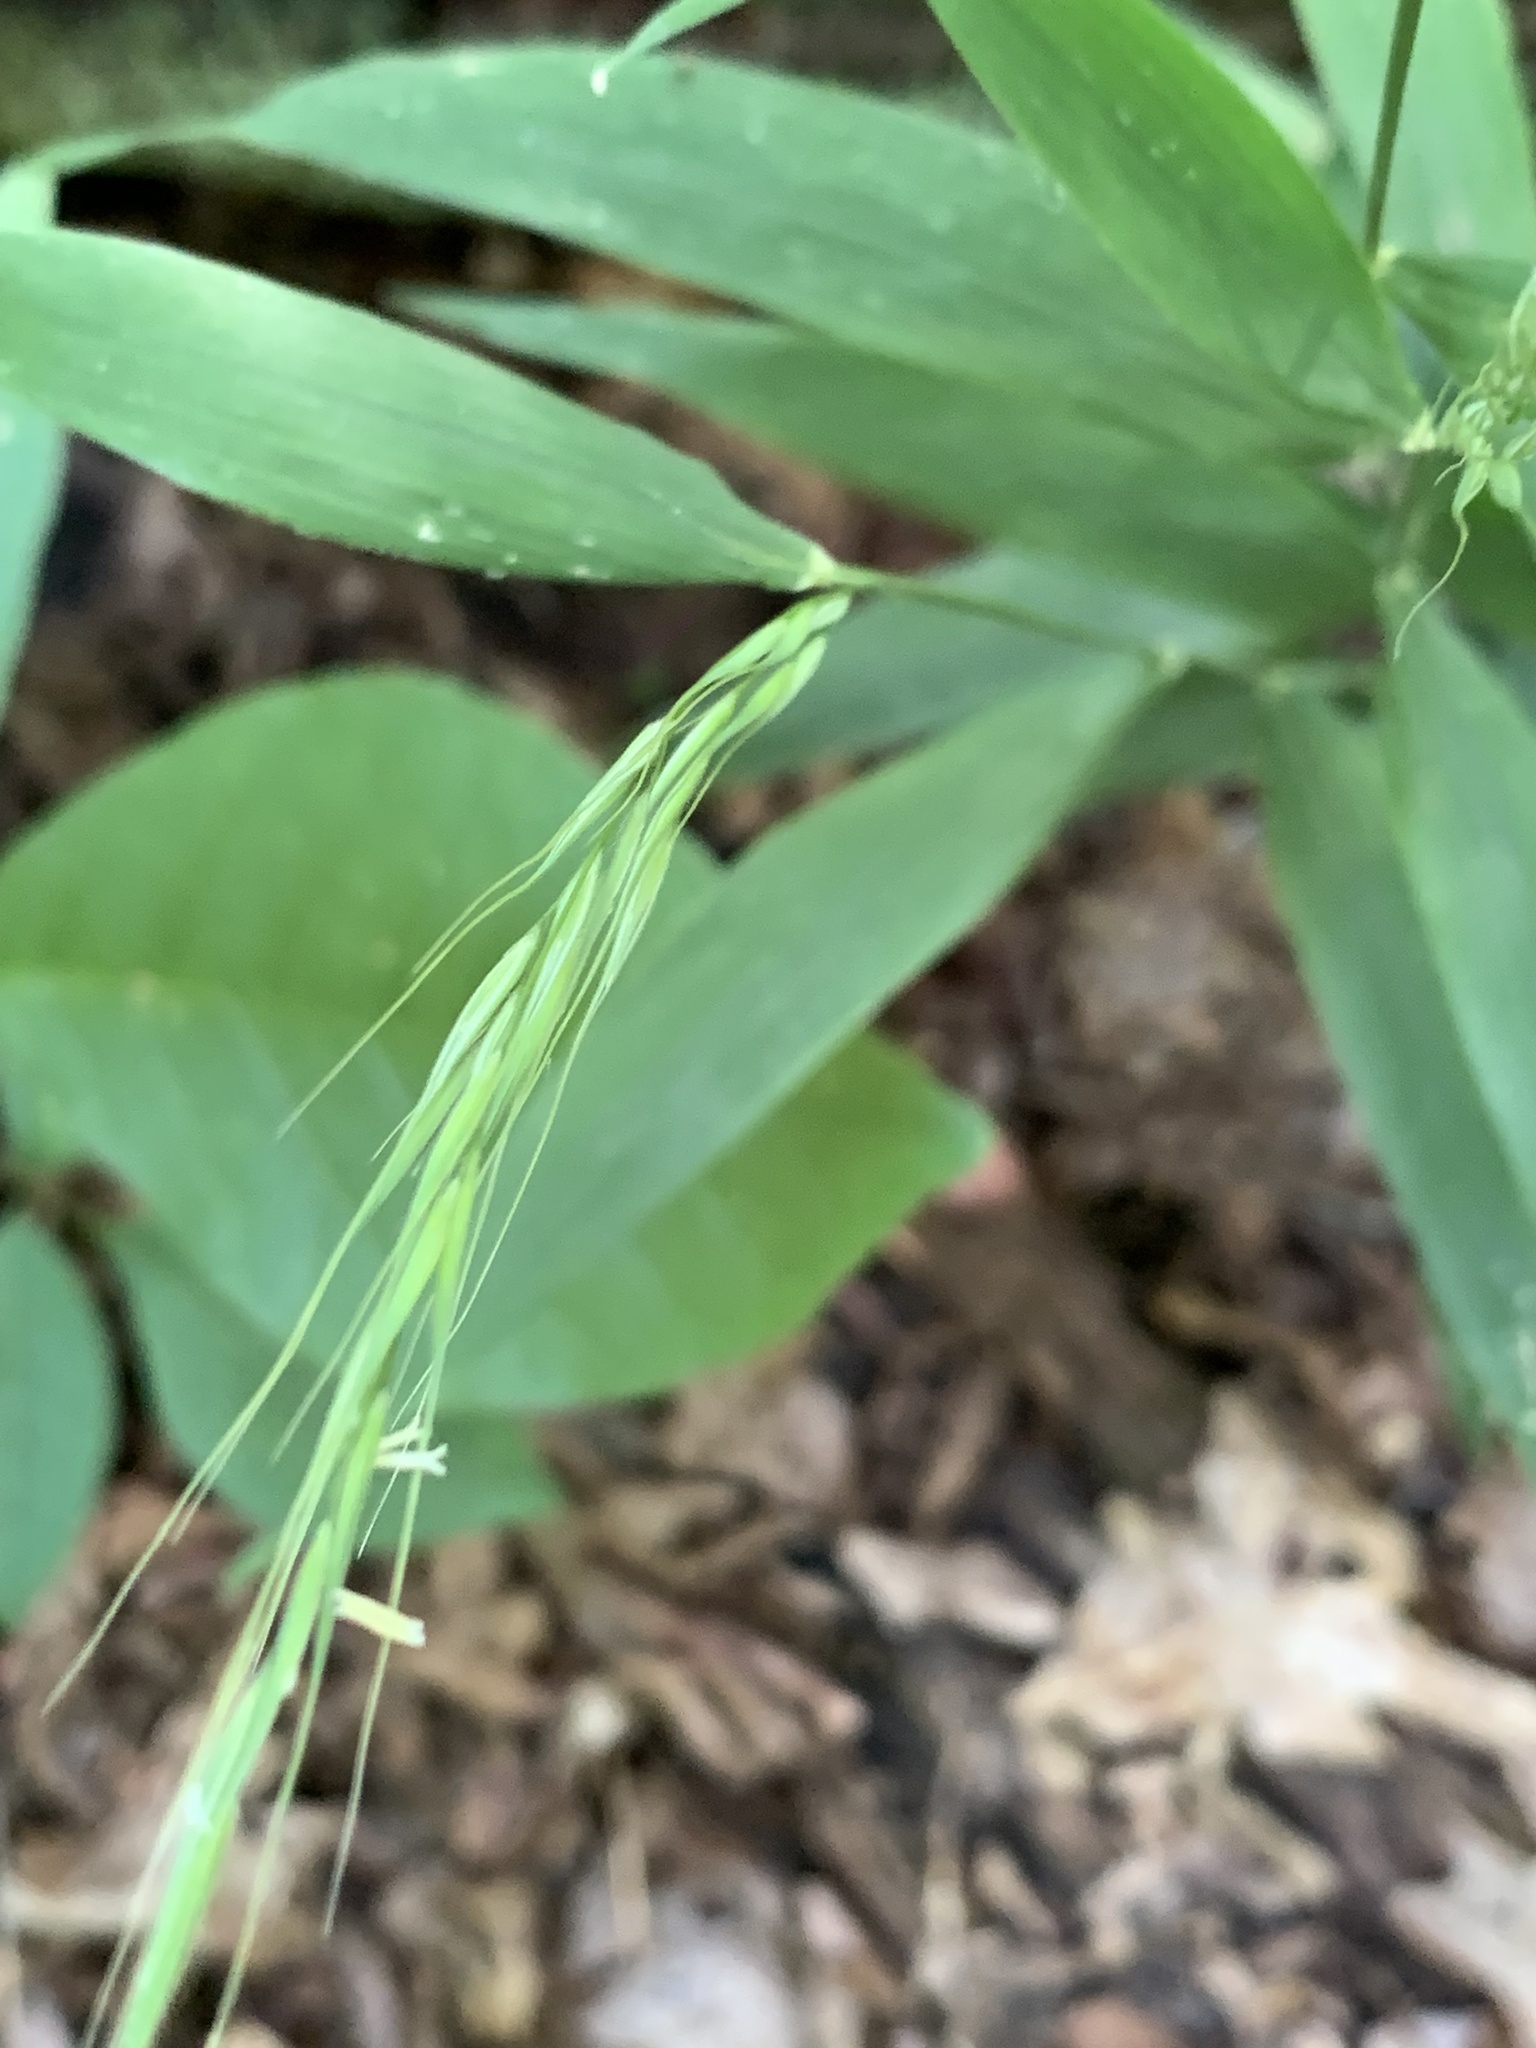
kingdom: Plantae
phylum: Tracheophyta
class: Liliopsida
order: Poales
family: Poaceae
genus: Brachyelytrum
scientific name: Brachyelytrum erectum
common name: Bearded shorthusk
